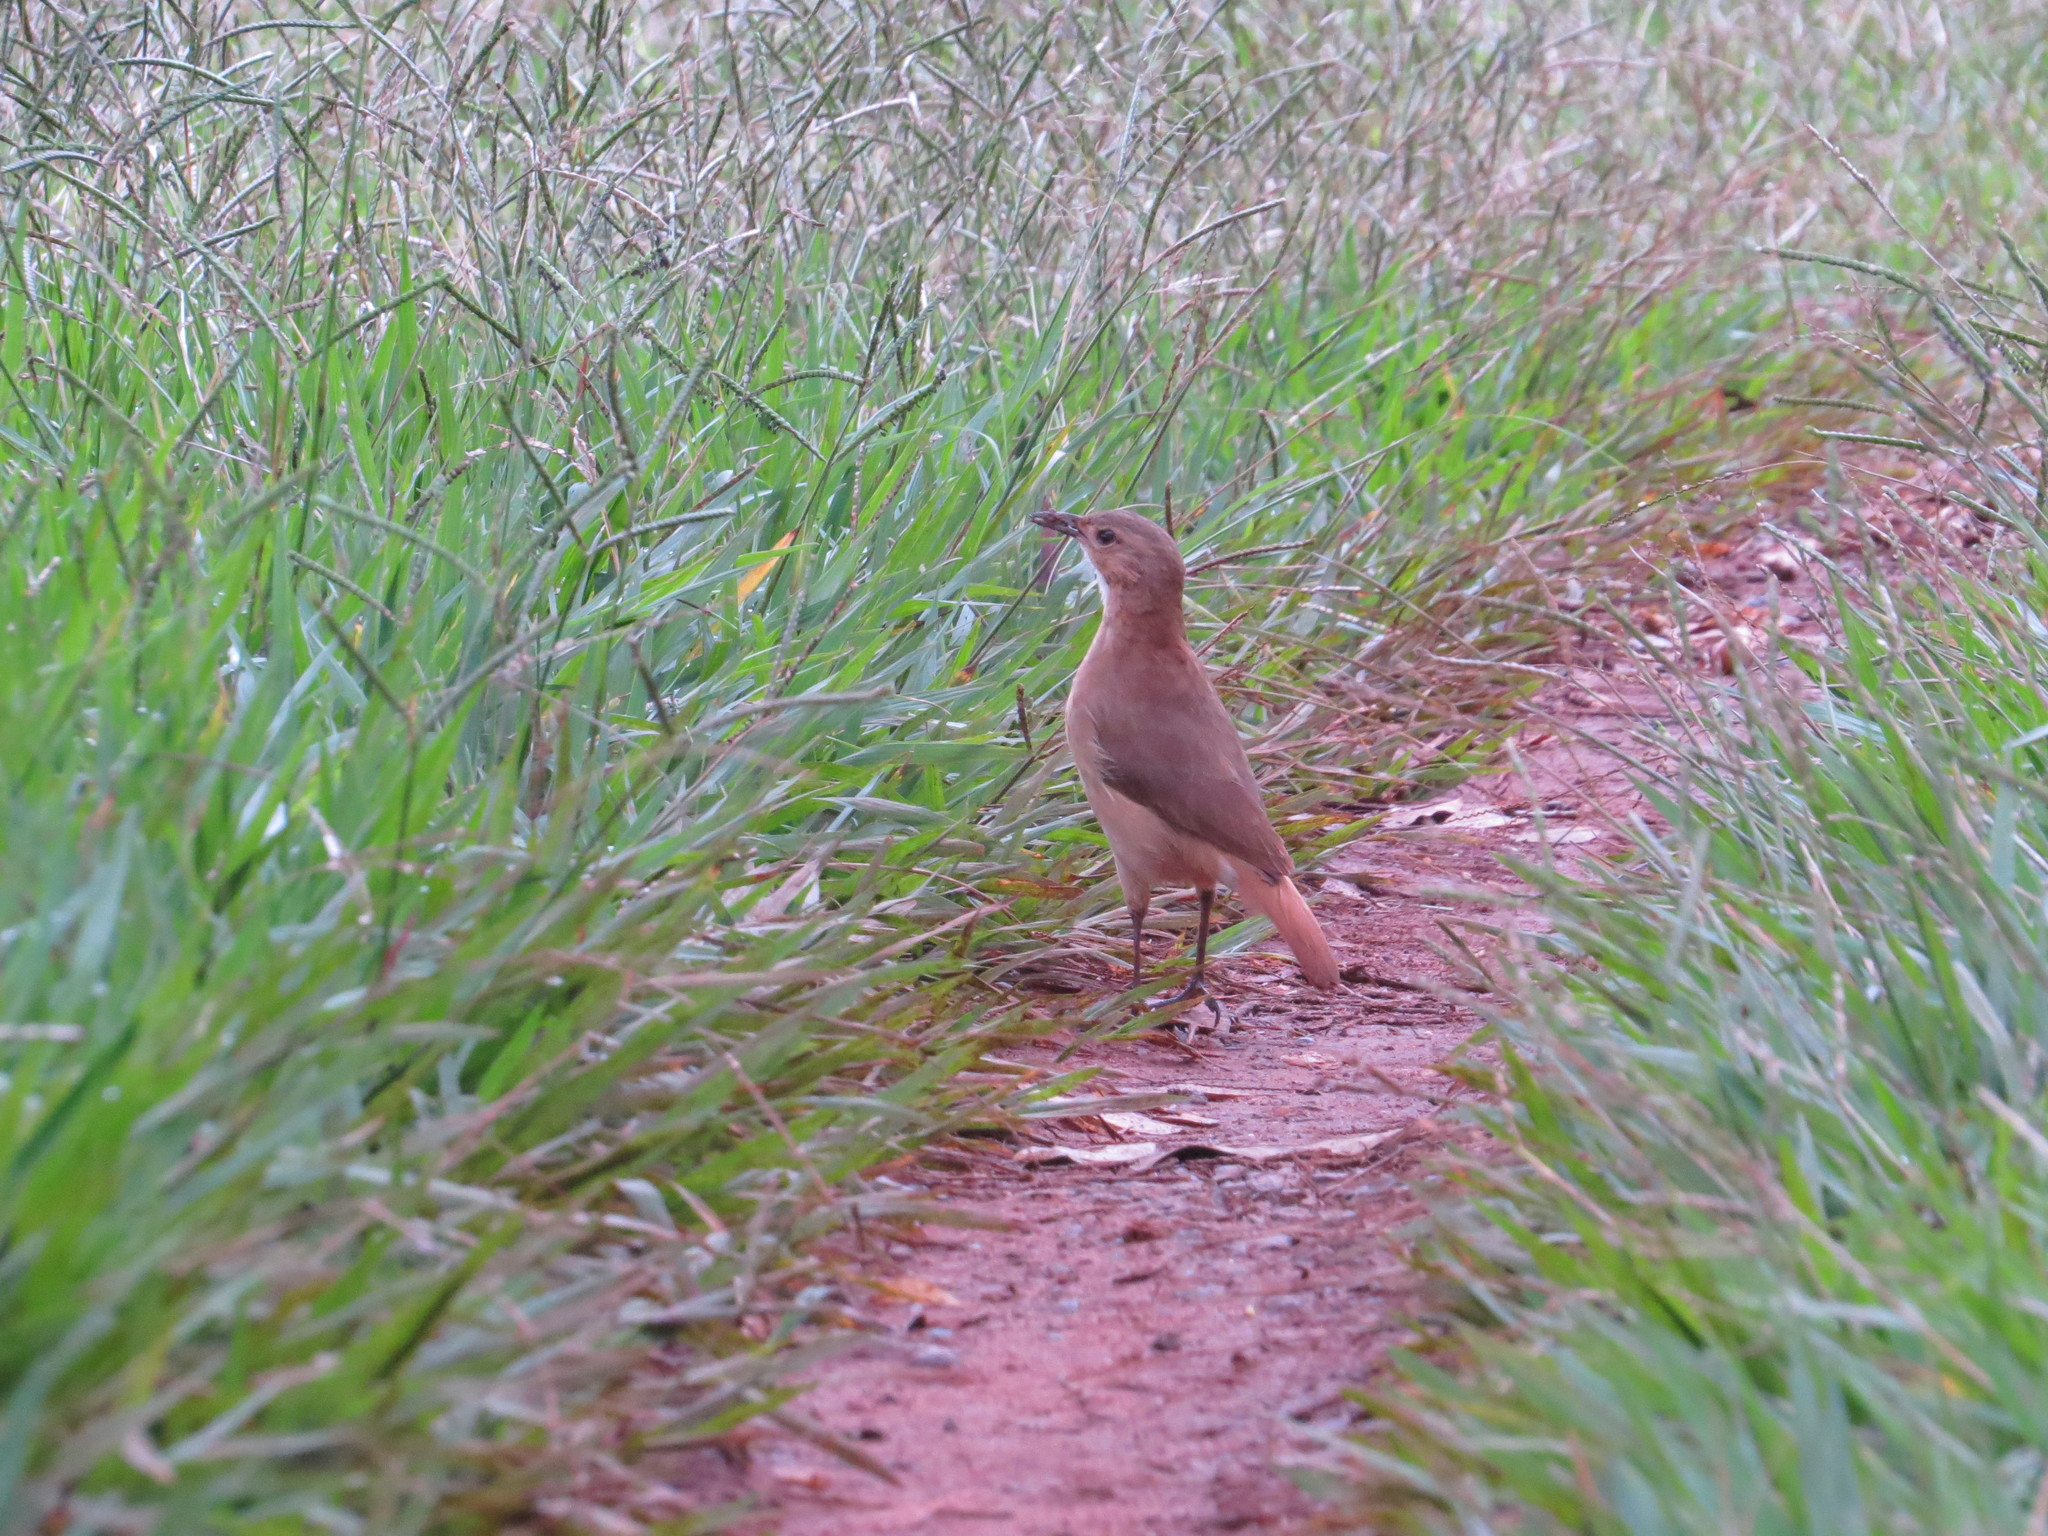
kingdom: Animalia
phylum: Chordata
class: Aves
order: Passeriformes
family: Furnariidae
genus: Furnarius
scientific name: Furnarius rufus
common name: Rufous hornero
